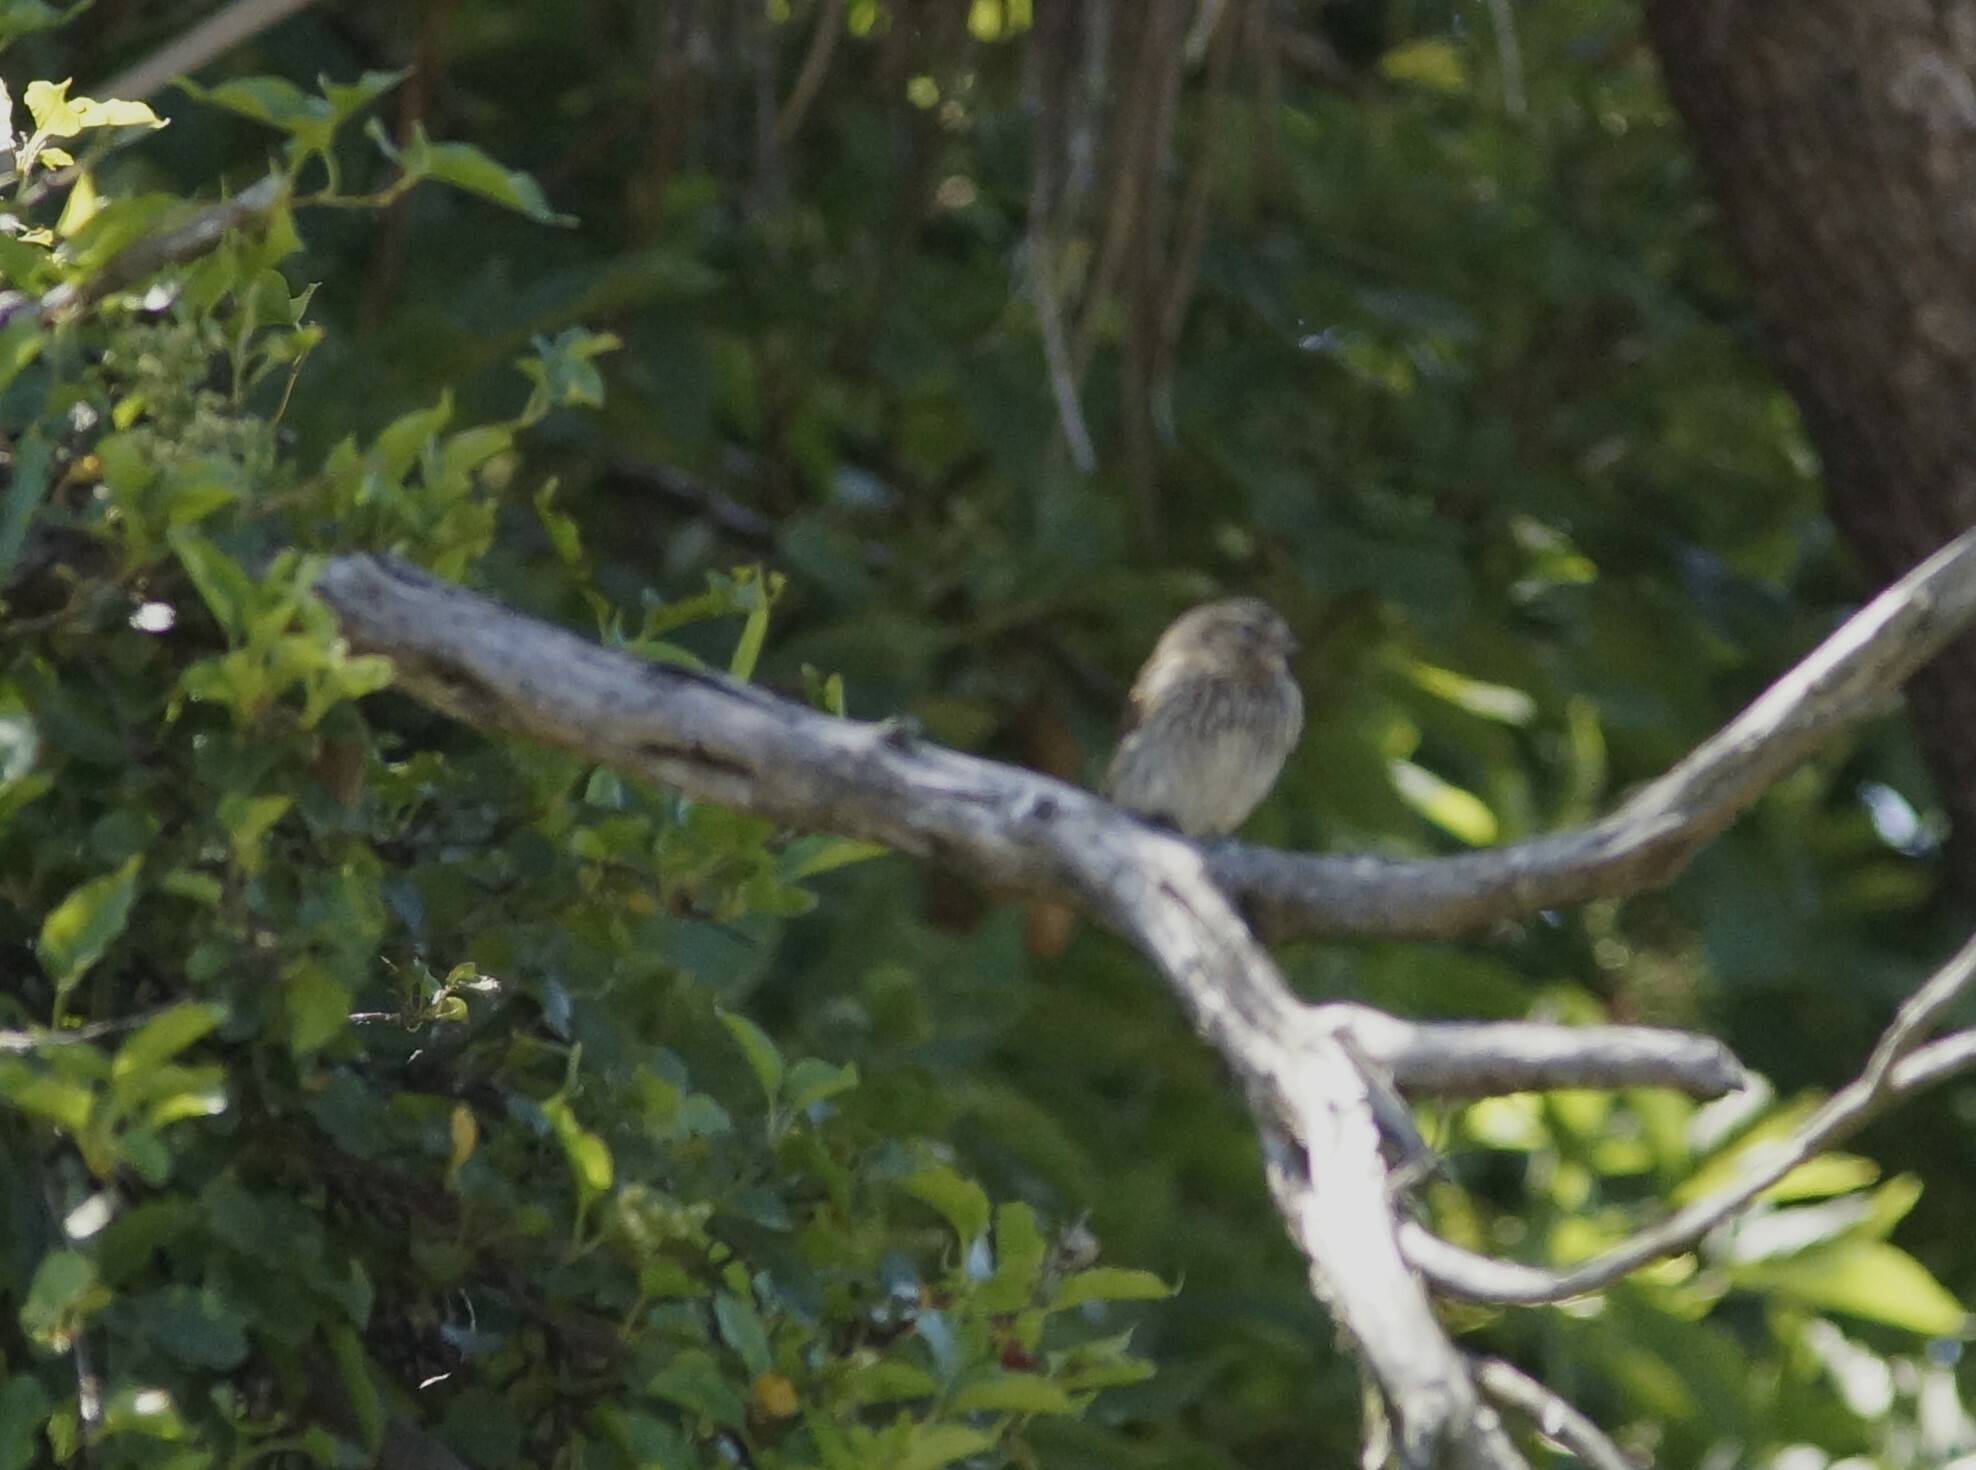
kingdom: Animalia
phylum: Chordata
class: Aves
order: Passeriformes
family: Fringillidae
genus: Acanthis
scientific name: Acanthis flammea
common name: Common redpoll
